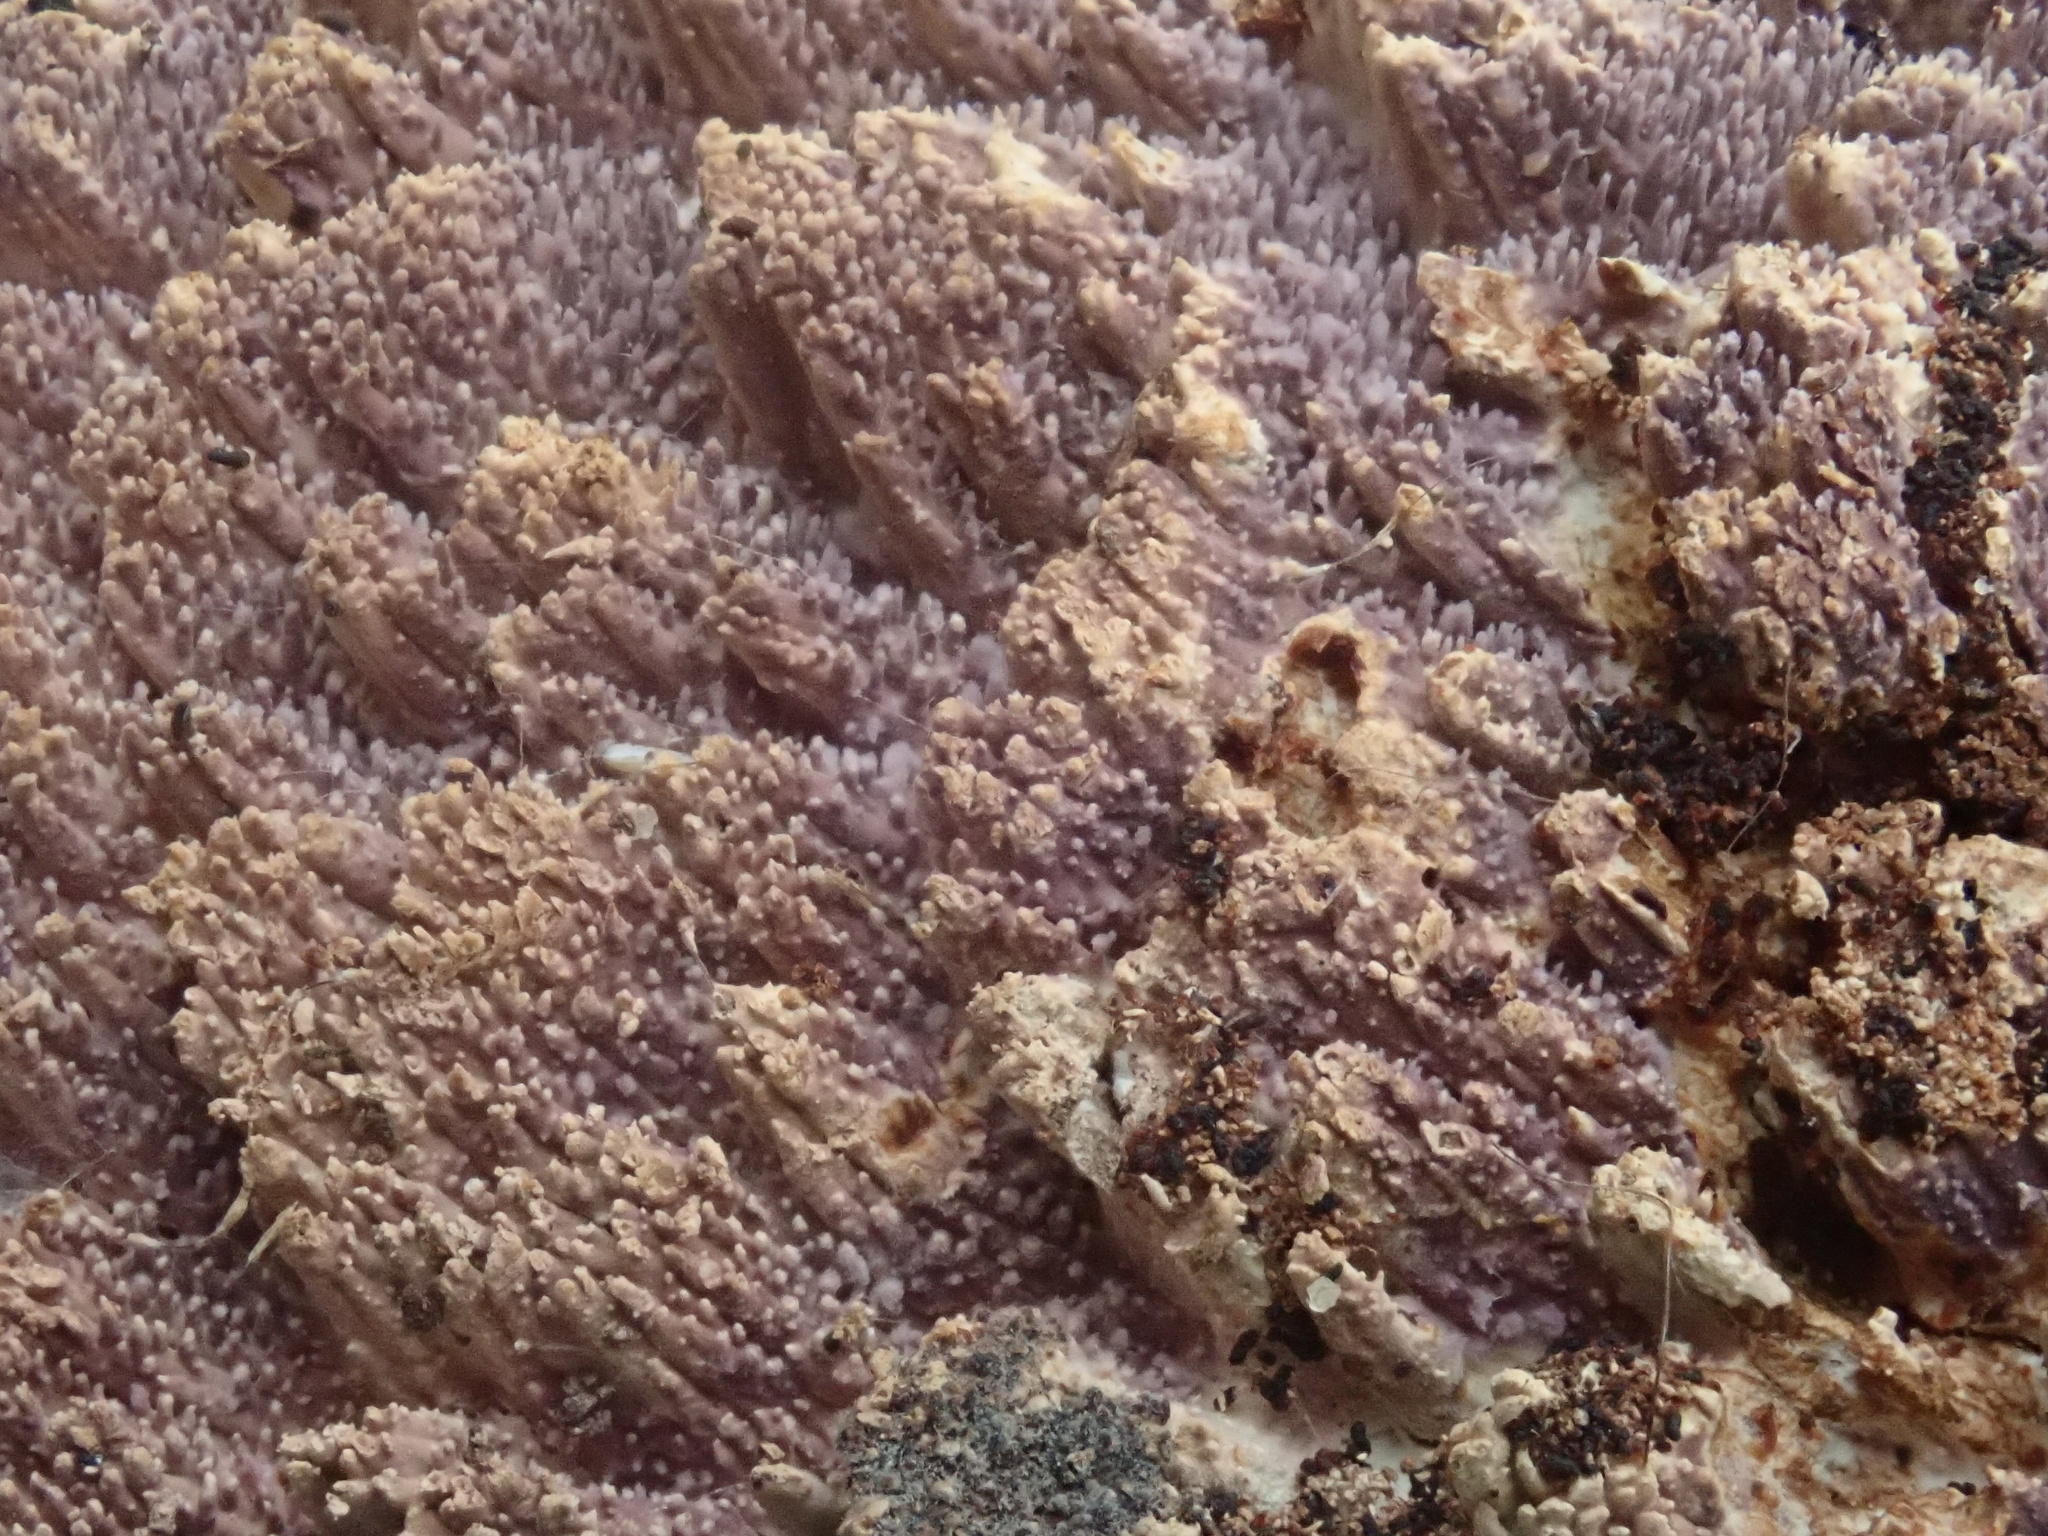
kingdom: Fungi
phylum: Basidiomycota
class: Agaricomycetes
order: Polyporales
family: Phanerochaetaceae
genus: Phlebiopsis
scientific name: Phlebiopsis dregeana
